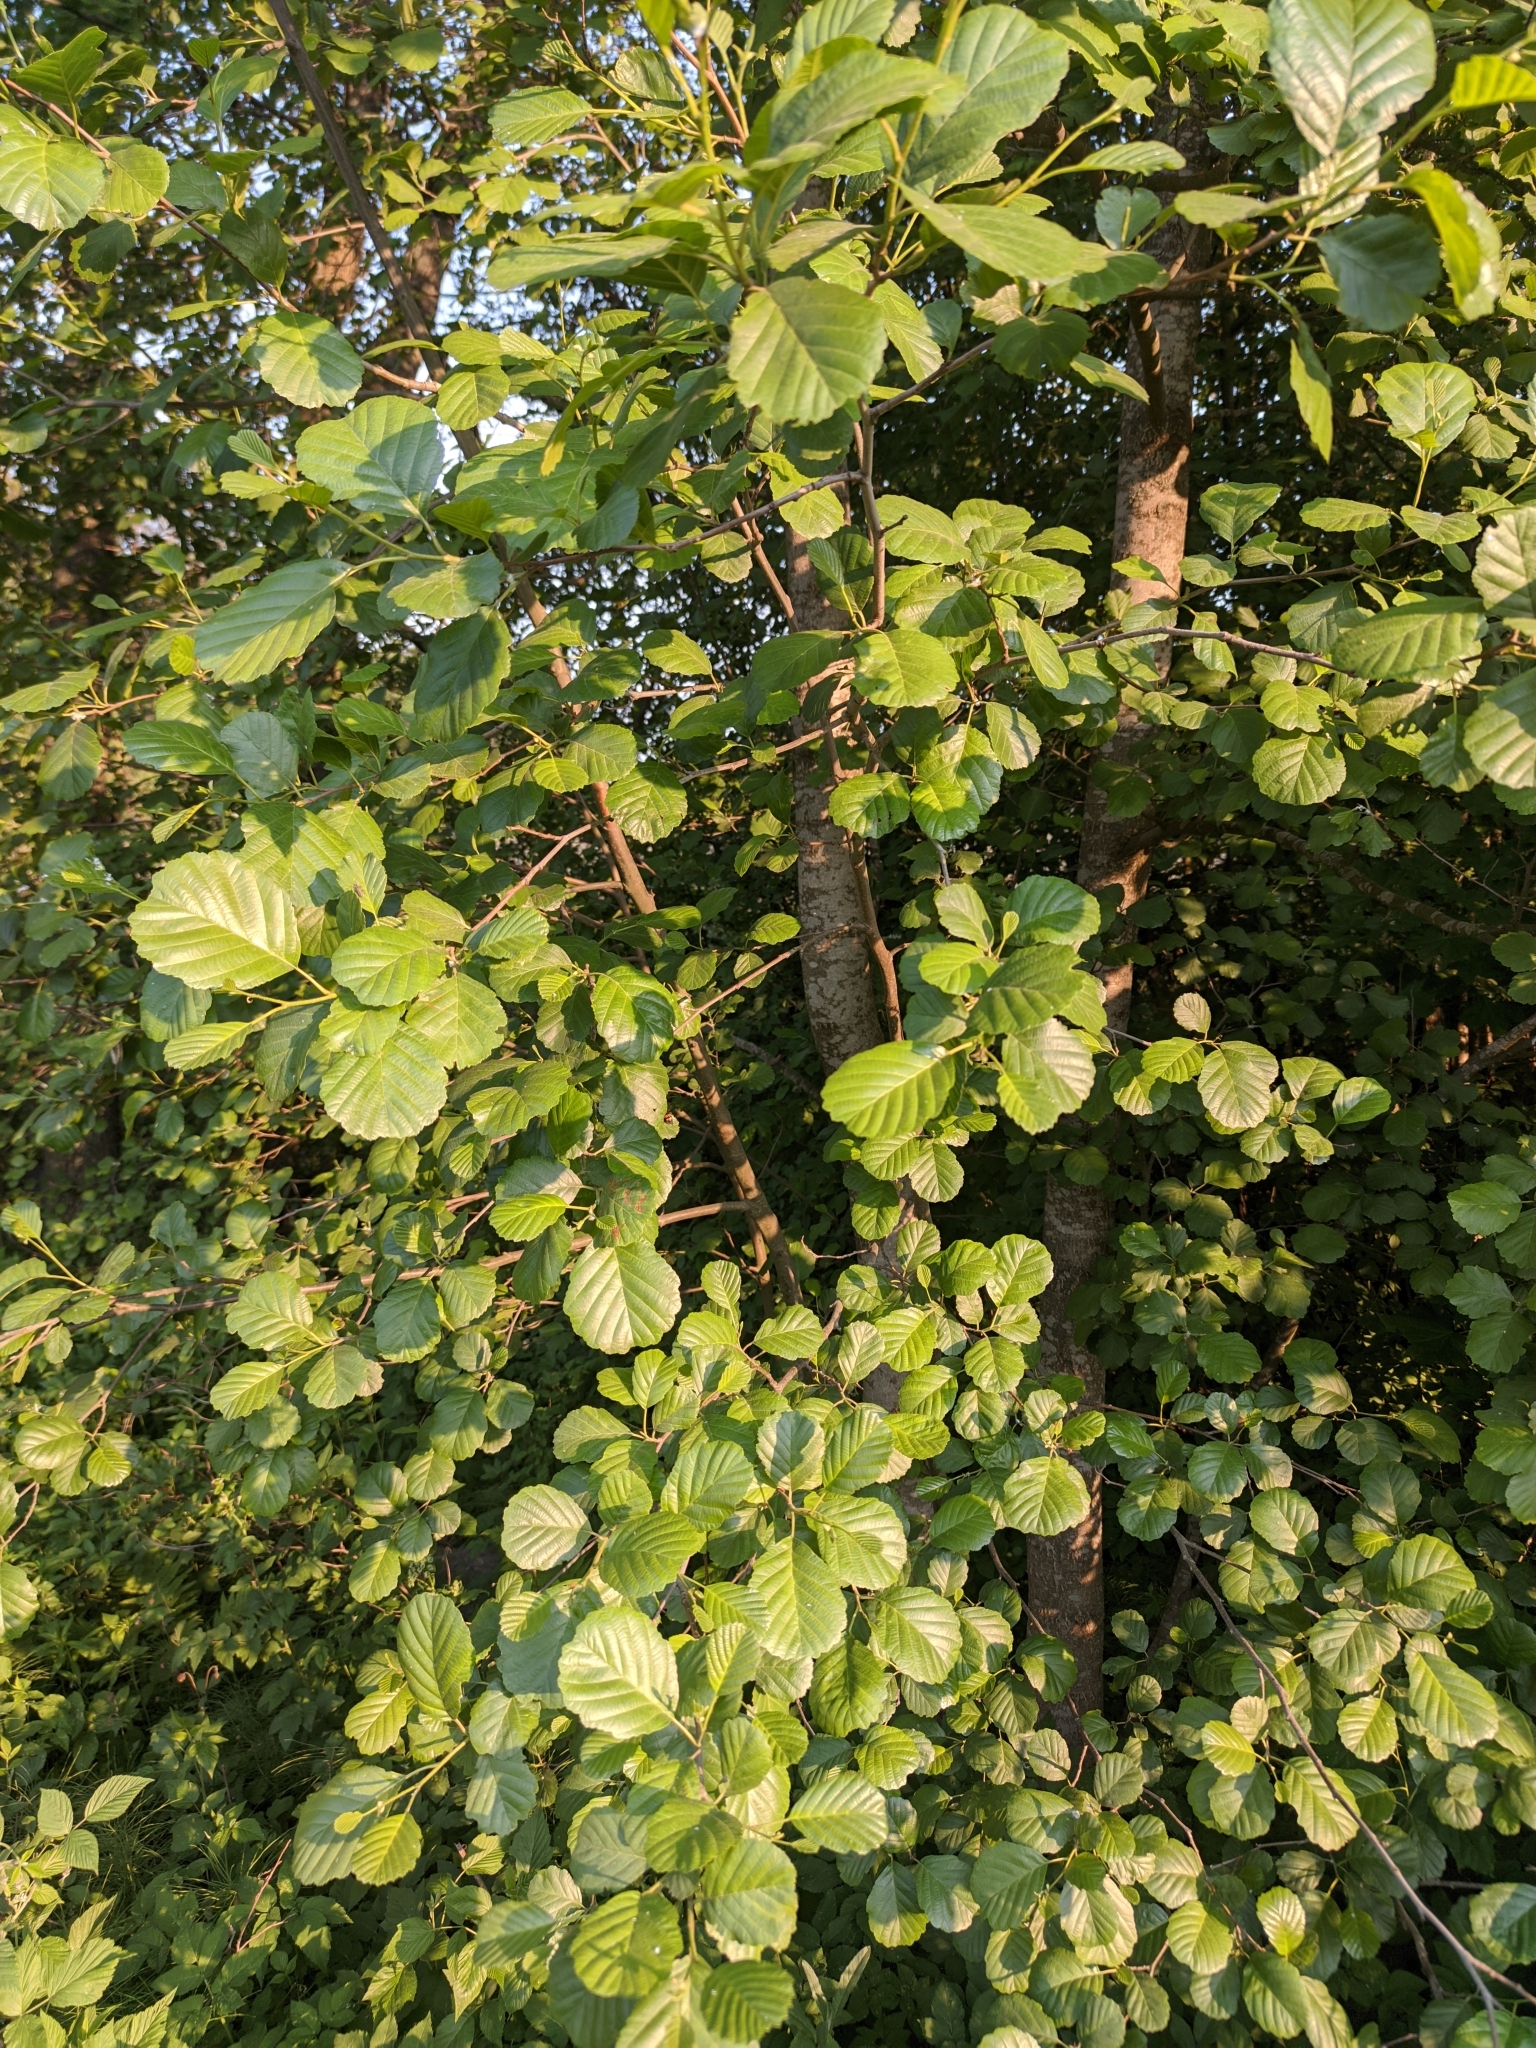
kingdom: Plantae
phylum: Tracheophyta
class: Magnoliopsida
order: Fagales
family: Betulaceae
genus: Alnus
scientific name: Alnus glutinosa
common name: Black alder
